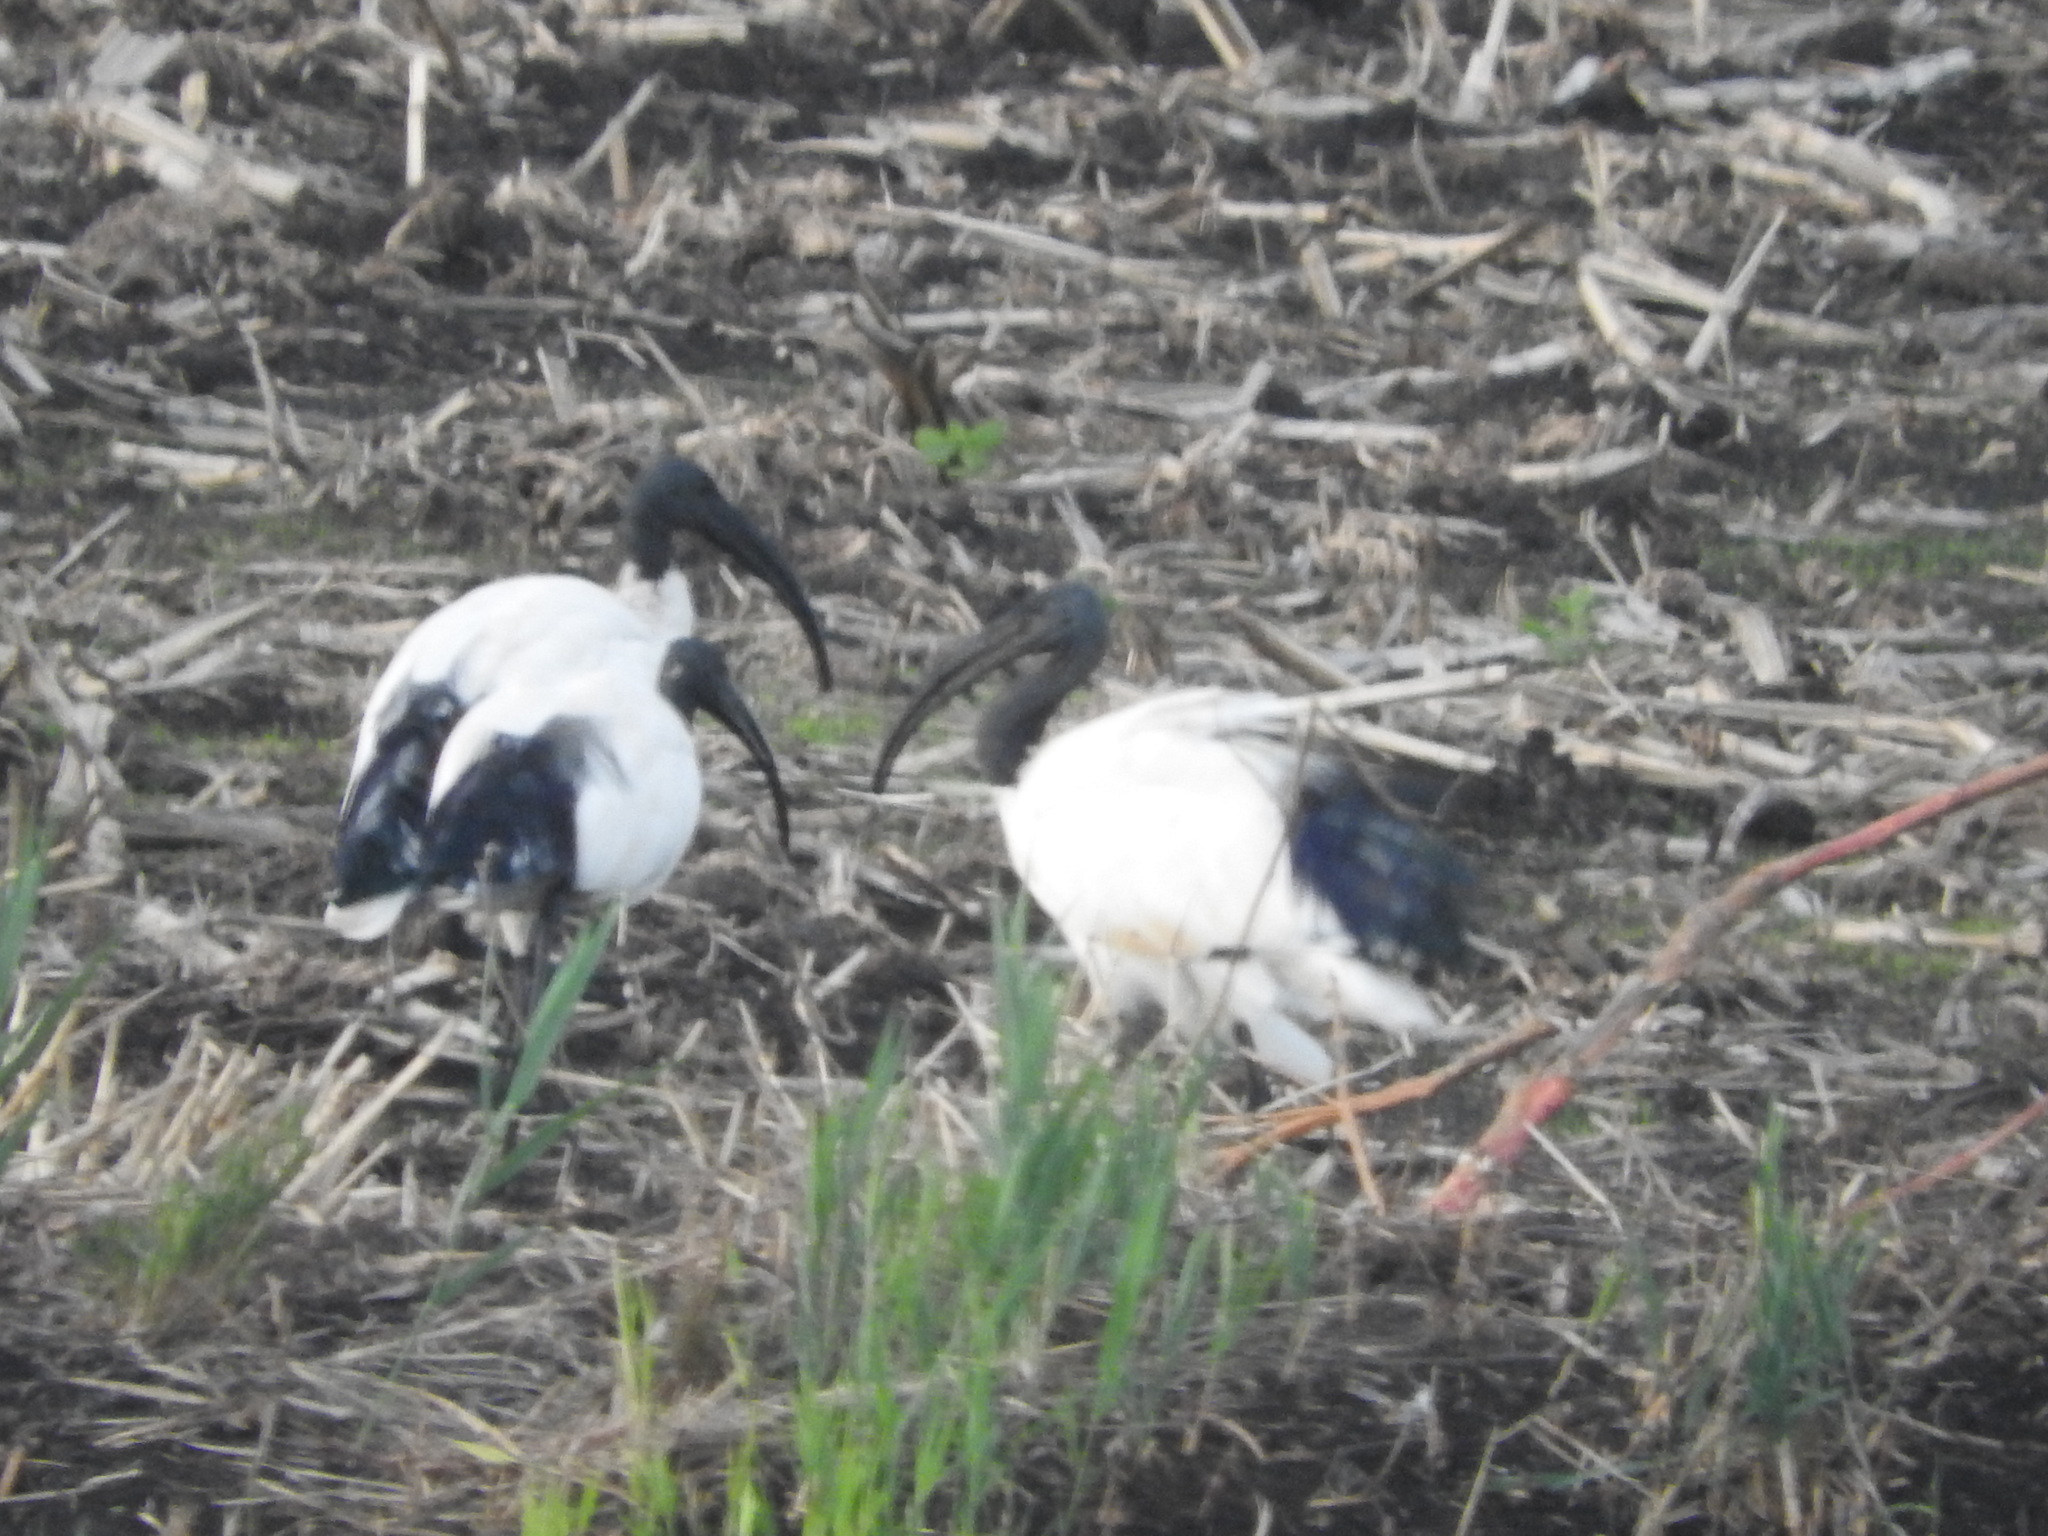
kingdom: Animalia
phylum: Chordata
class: Aves
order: Pelecaniformes
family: Threskiornithidae
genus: Threskiornis
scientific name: Threskiornis aethiopicus
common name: Sacred ibis
